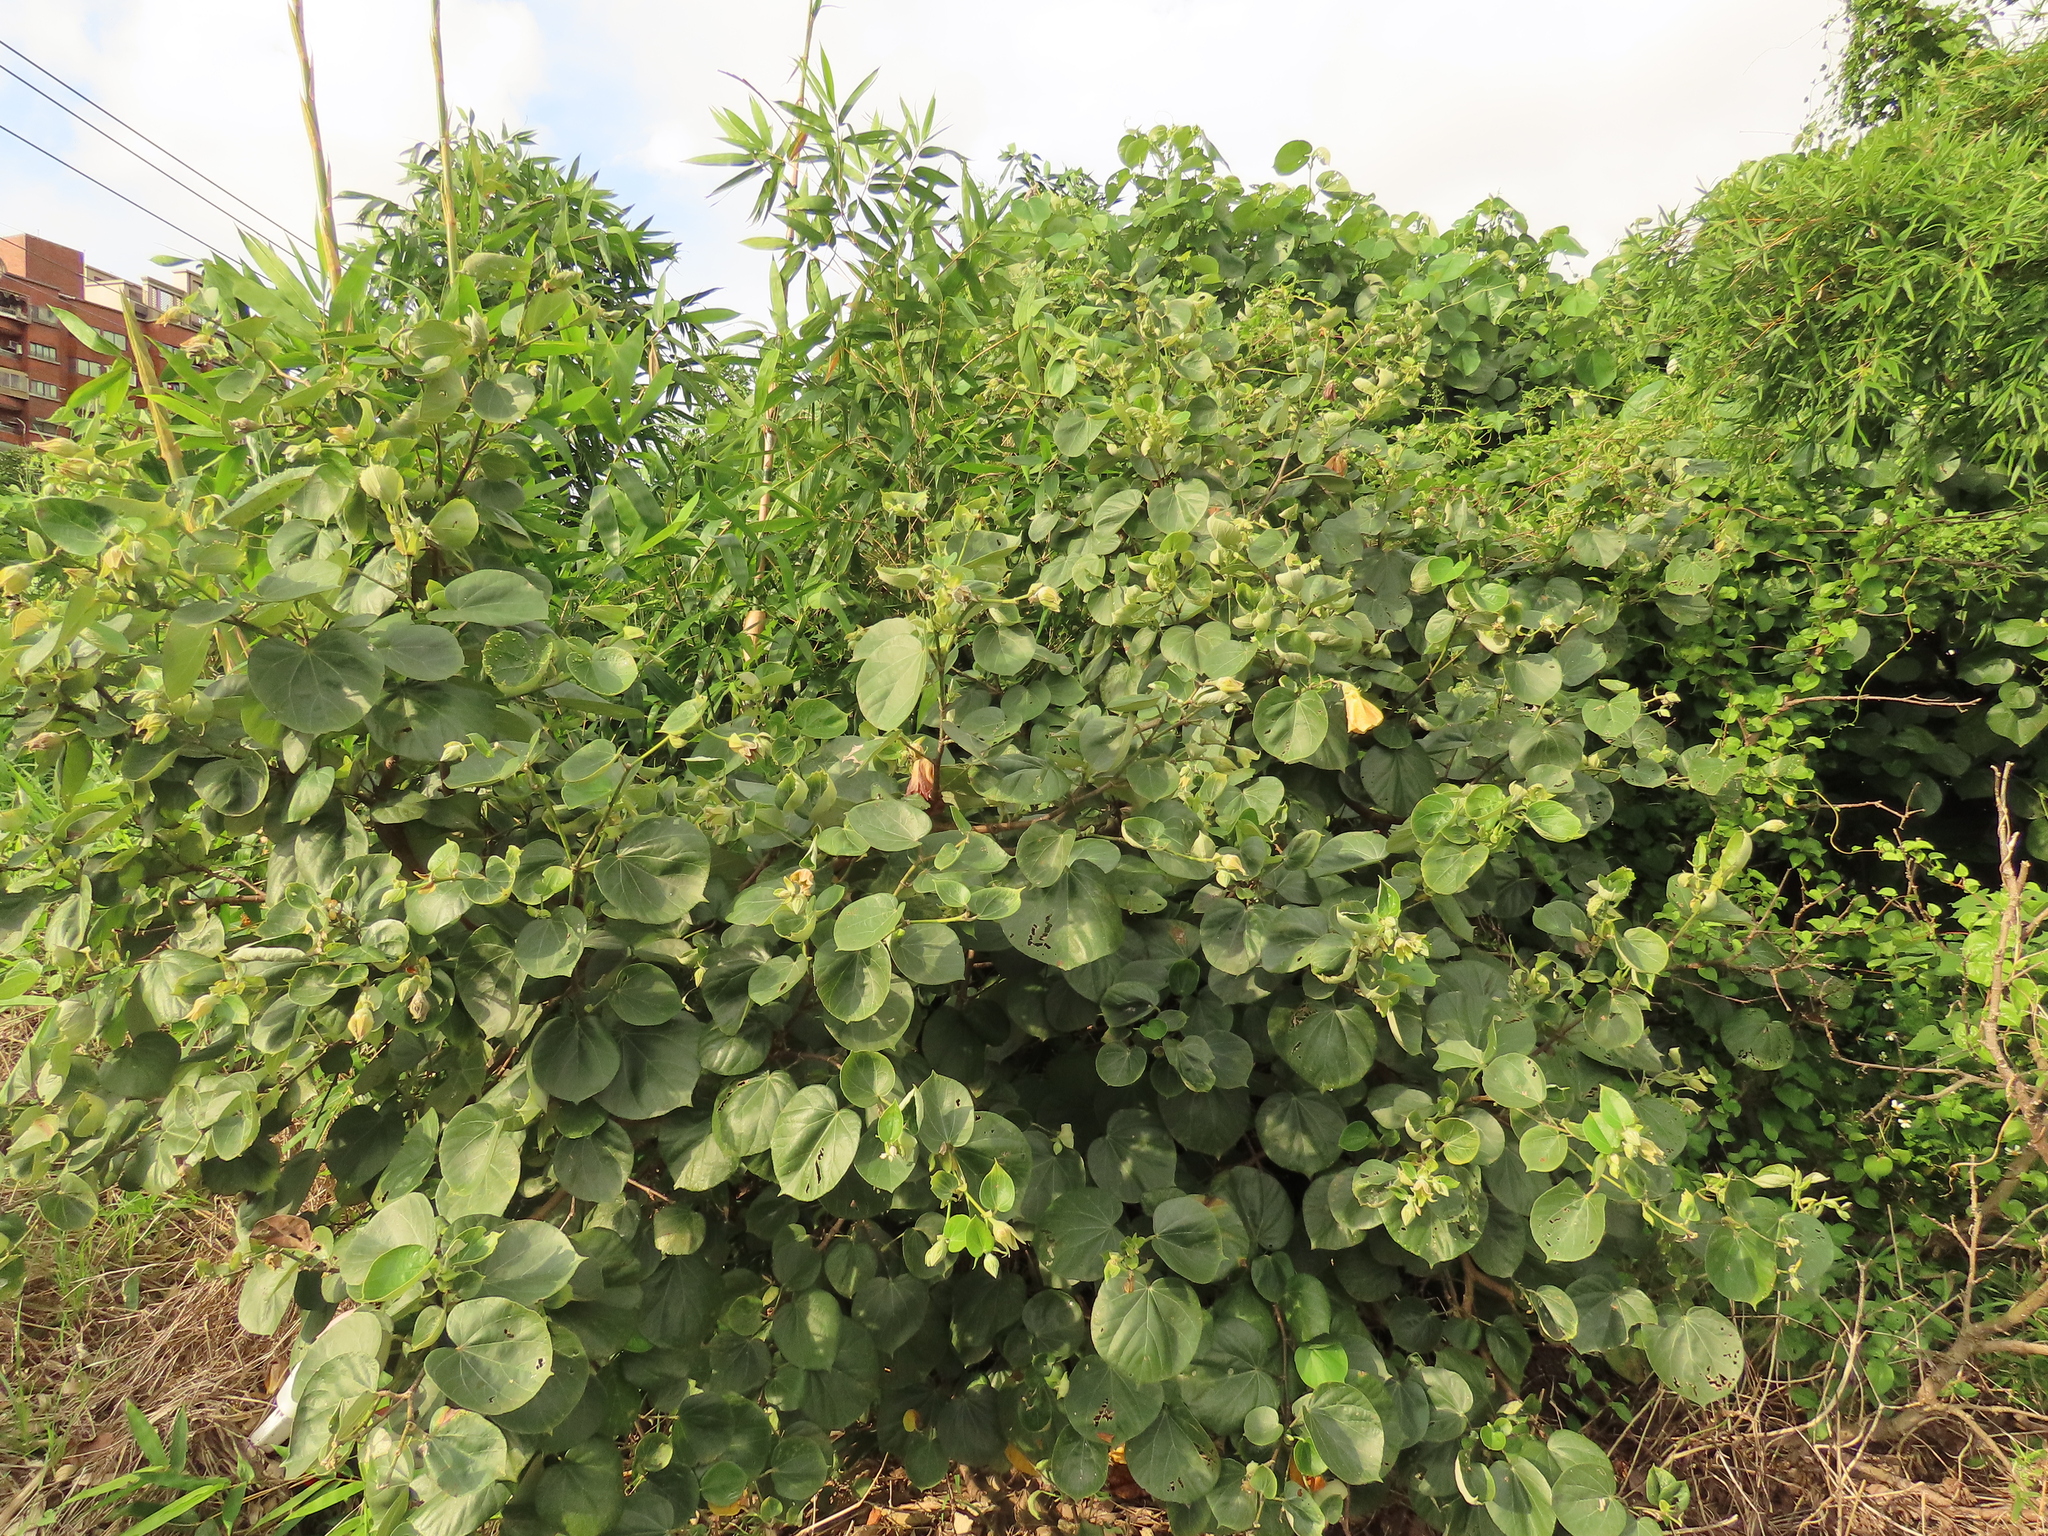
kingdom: Plantae
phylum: Tracheophyta
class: Magnoliopsida
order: Malvales
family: Malvaceae
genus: Talipariti
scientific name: Talipariti tiliaceum
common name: Sea hibiscus
